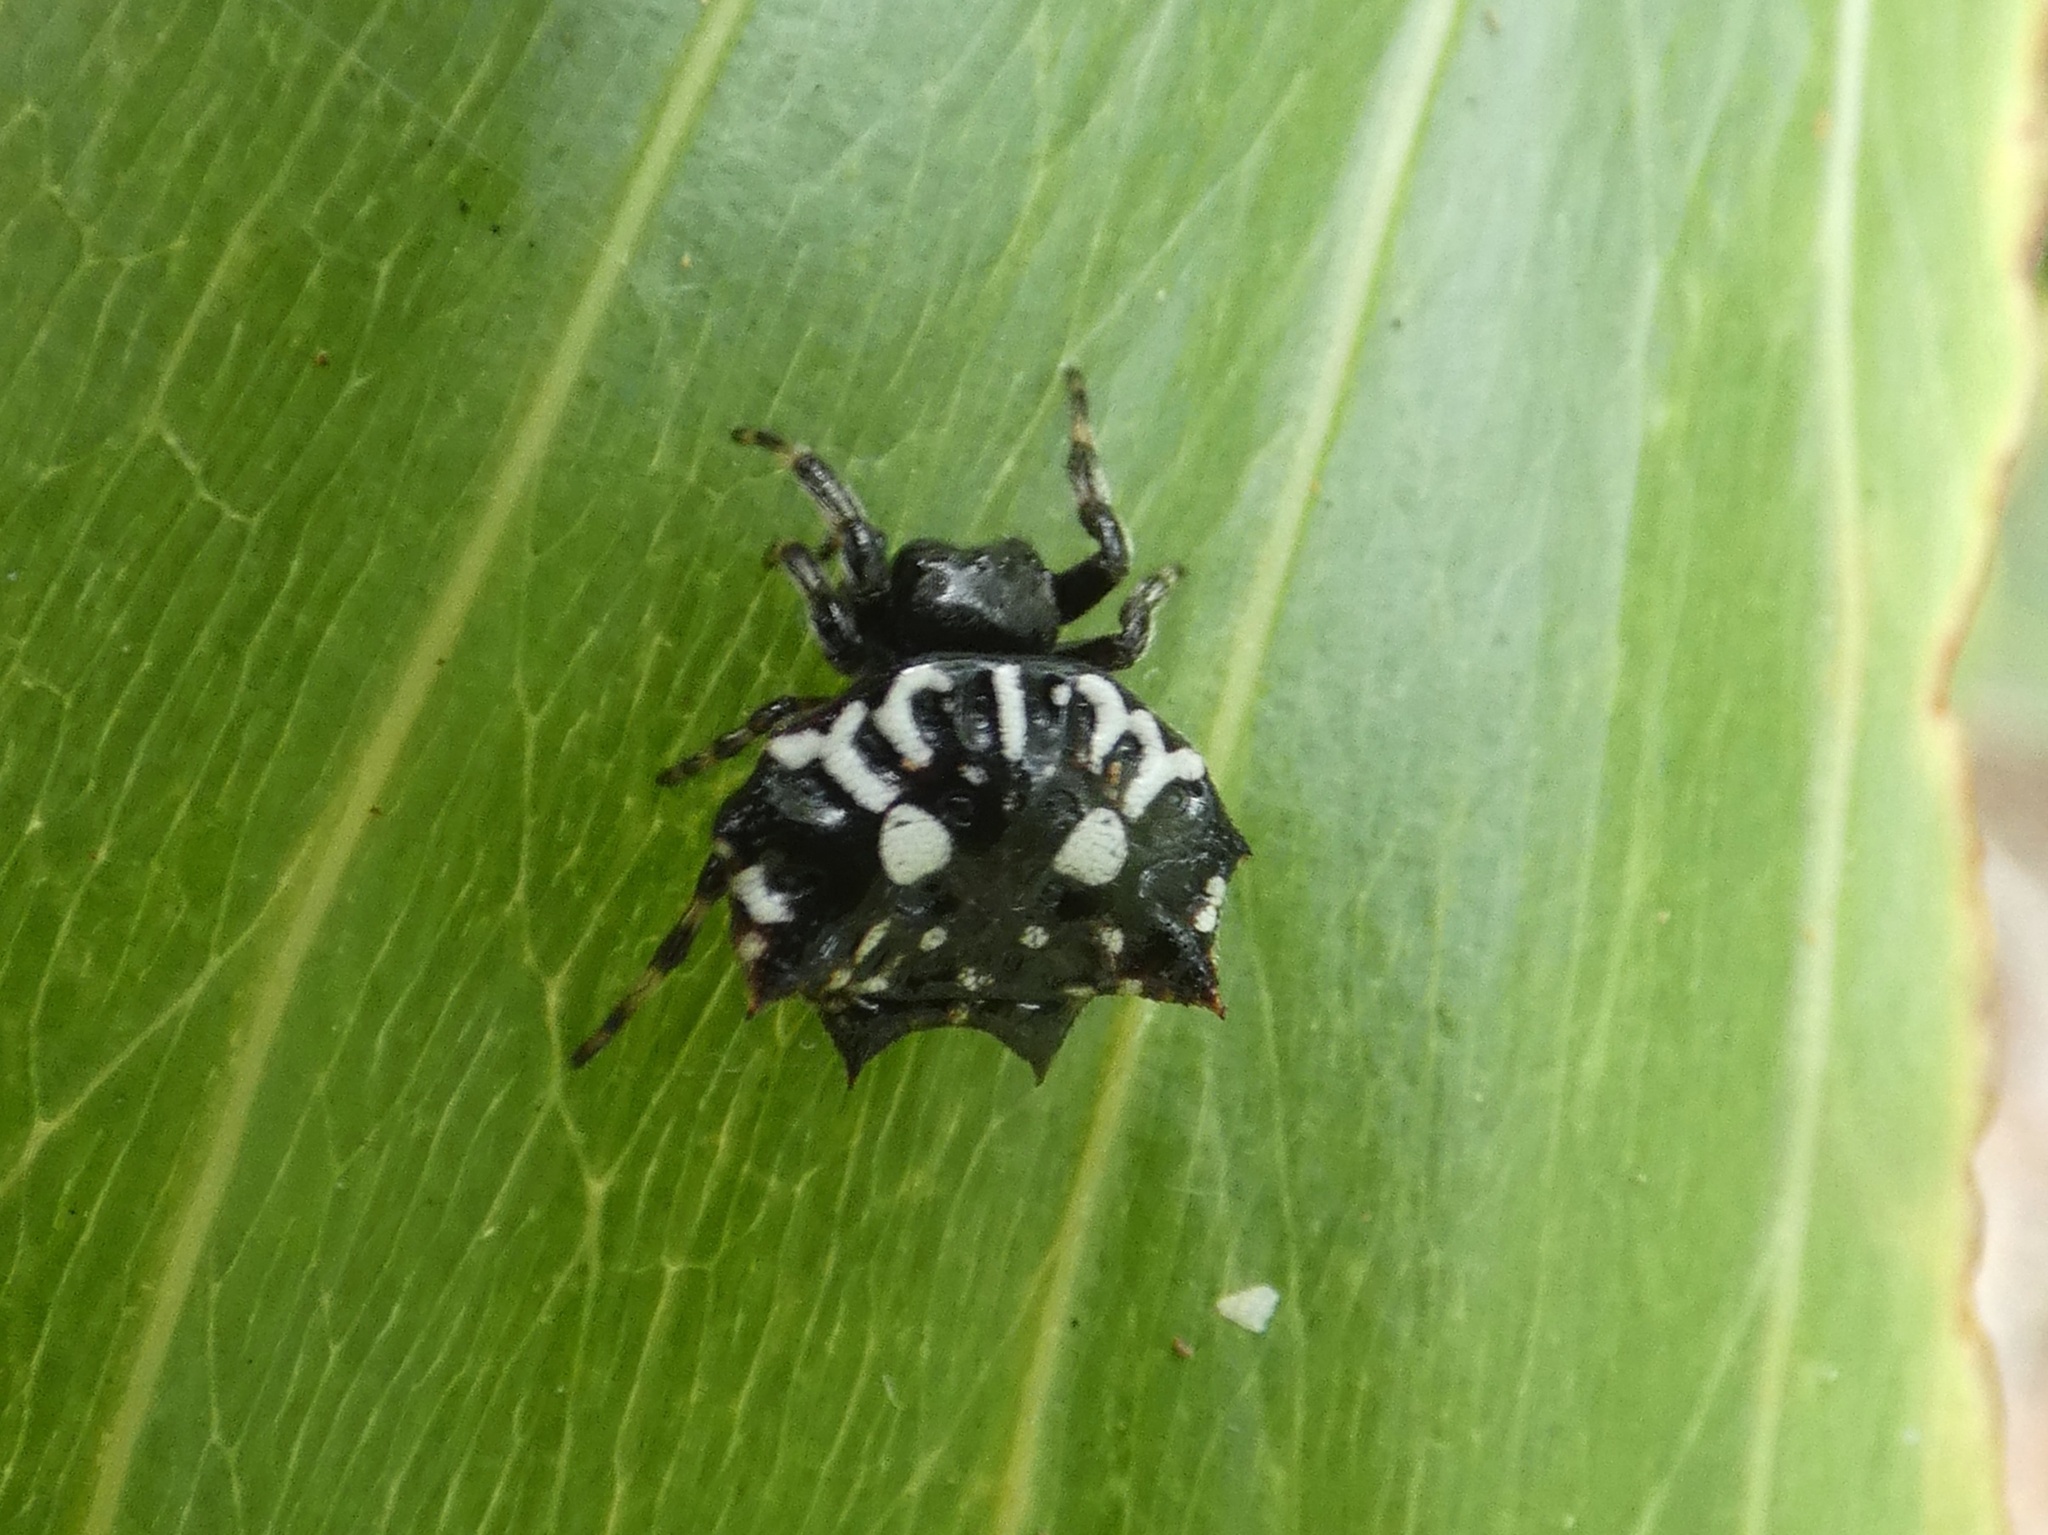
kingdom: Animalia
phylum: Arthropoda
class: Arachnida
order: Araneae
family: Araneidae
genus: Gasteracantha
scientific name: Gasteracantha sacerdotalis
